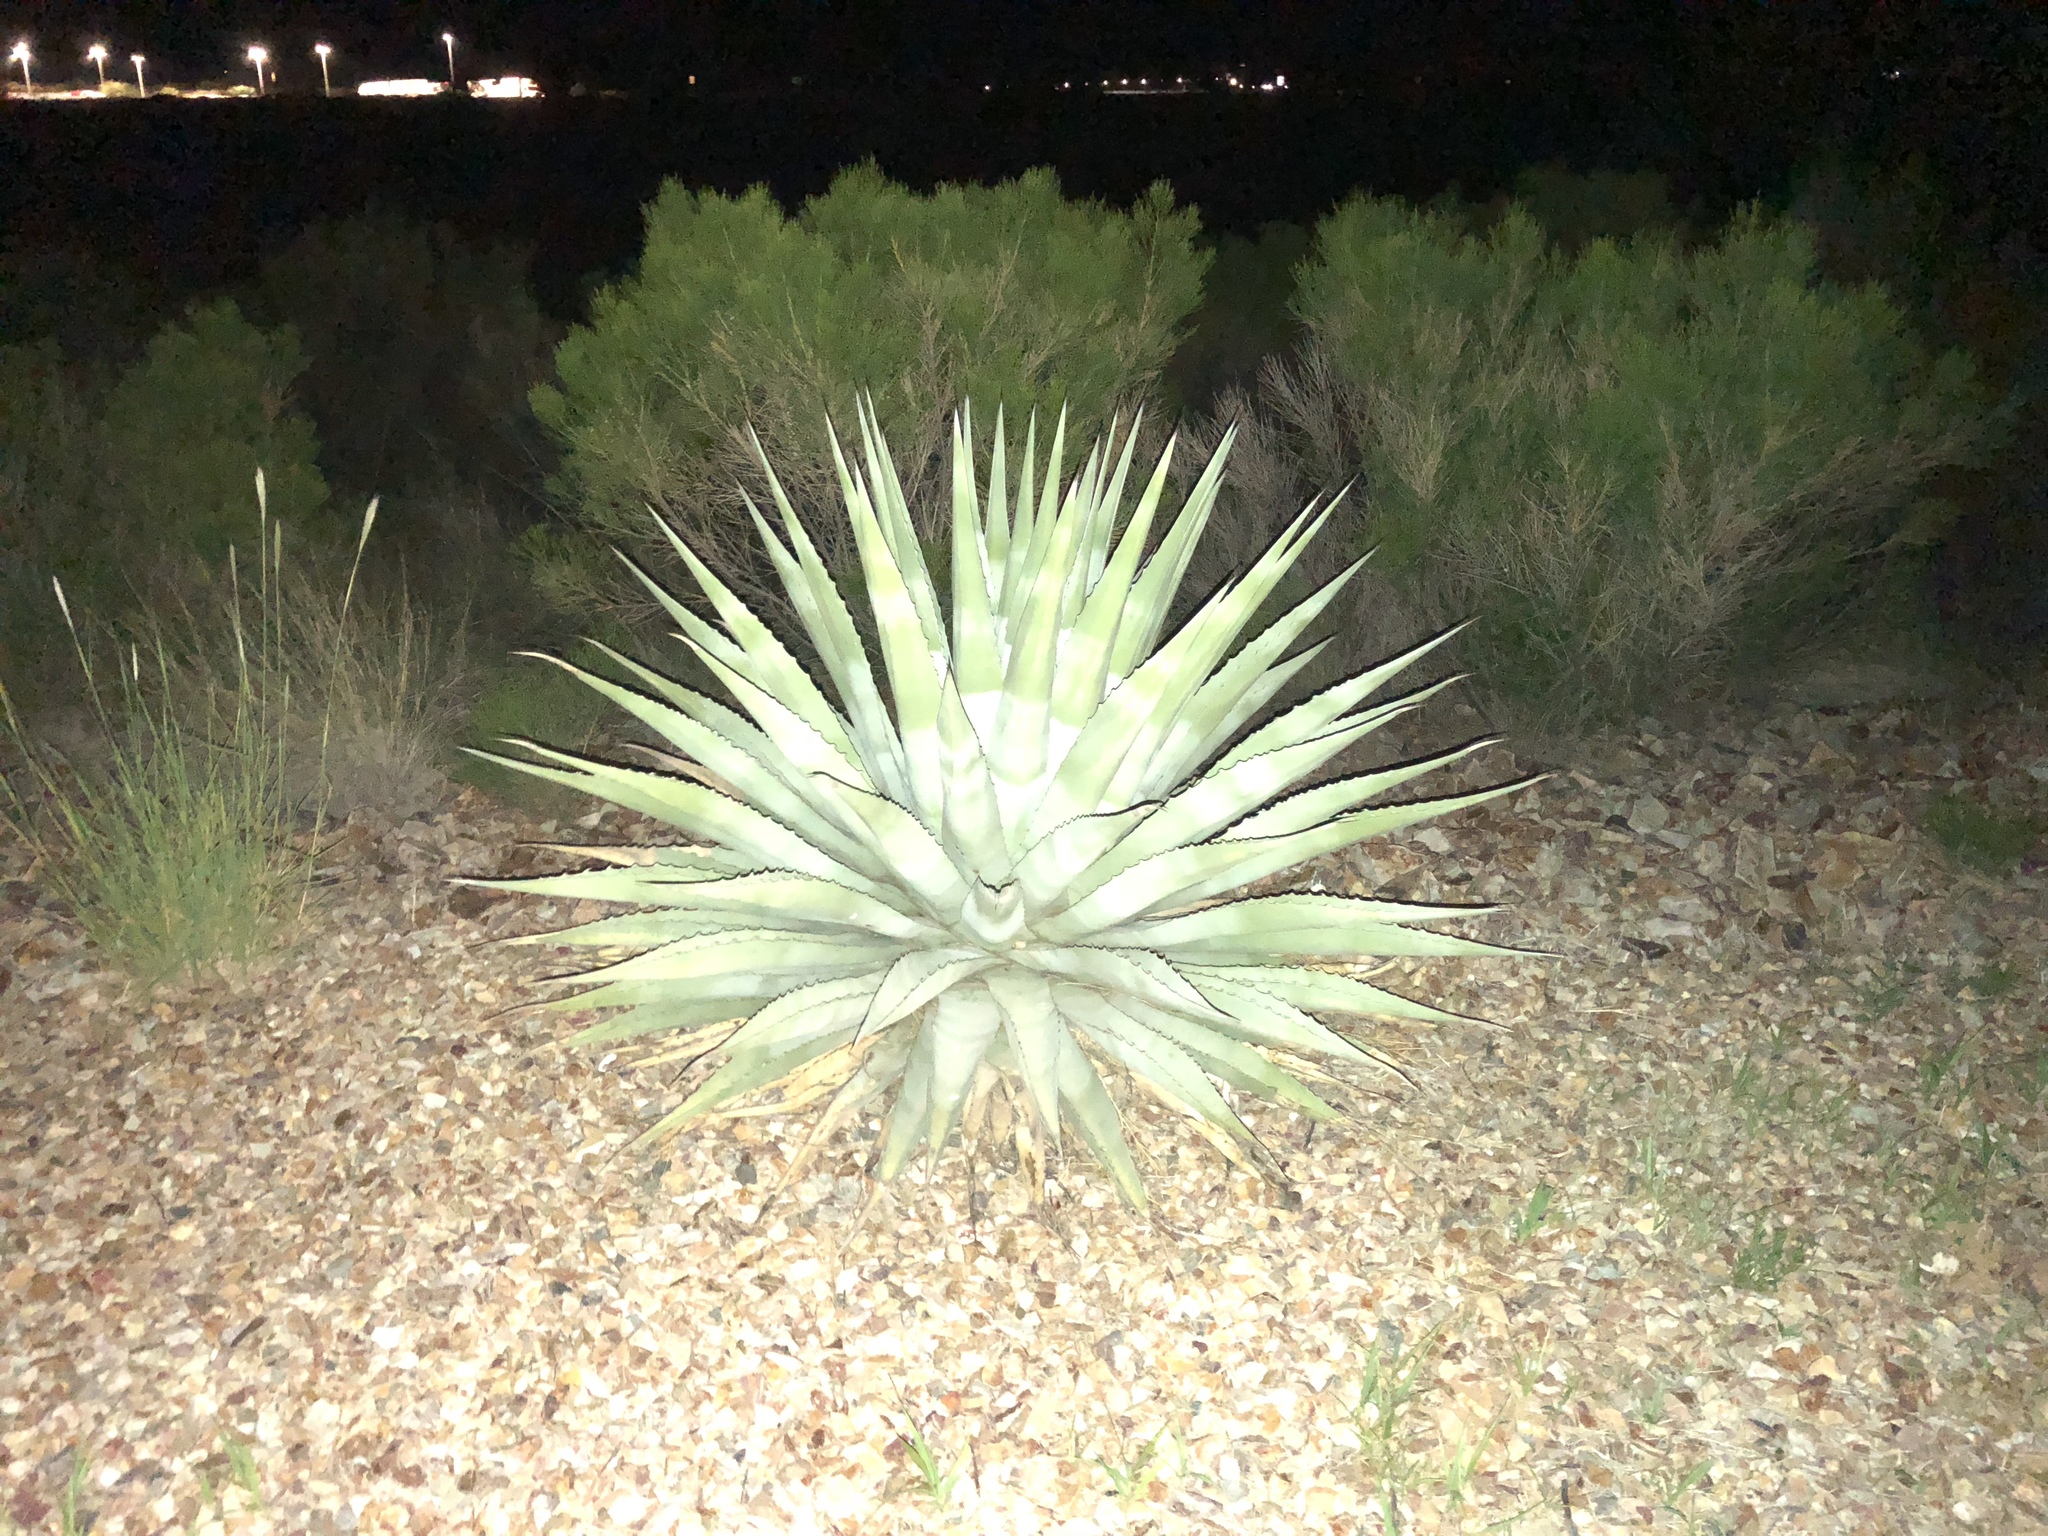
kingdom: Plantae
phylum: Tracheophyta
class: Liliopsida
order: Asparagales
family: Asparagaceae
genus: Agave
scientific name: Agave palmeri
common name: Palmer agave
